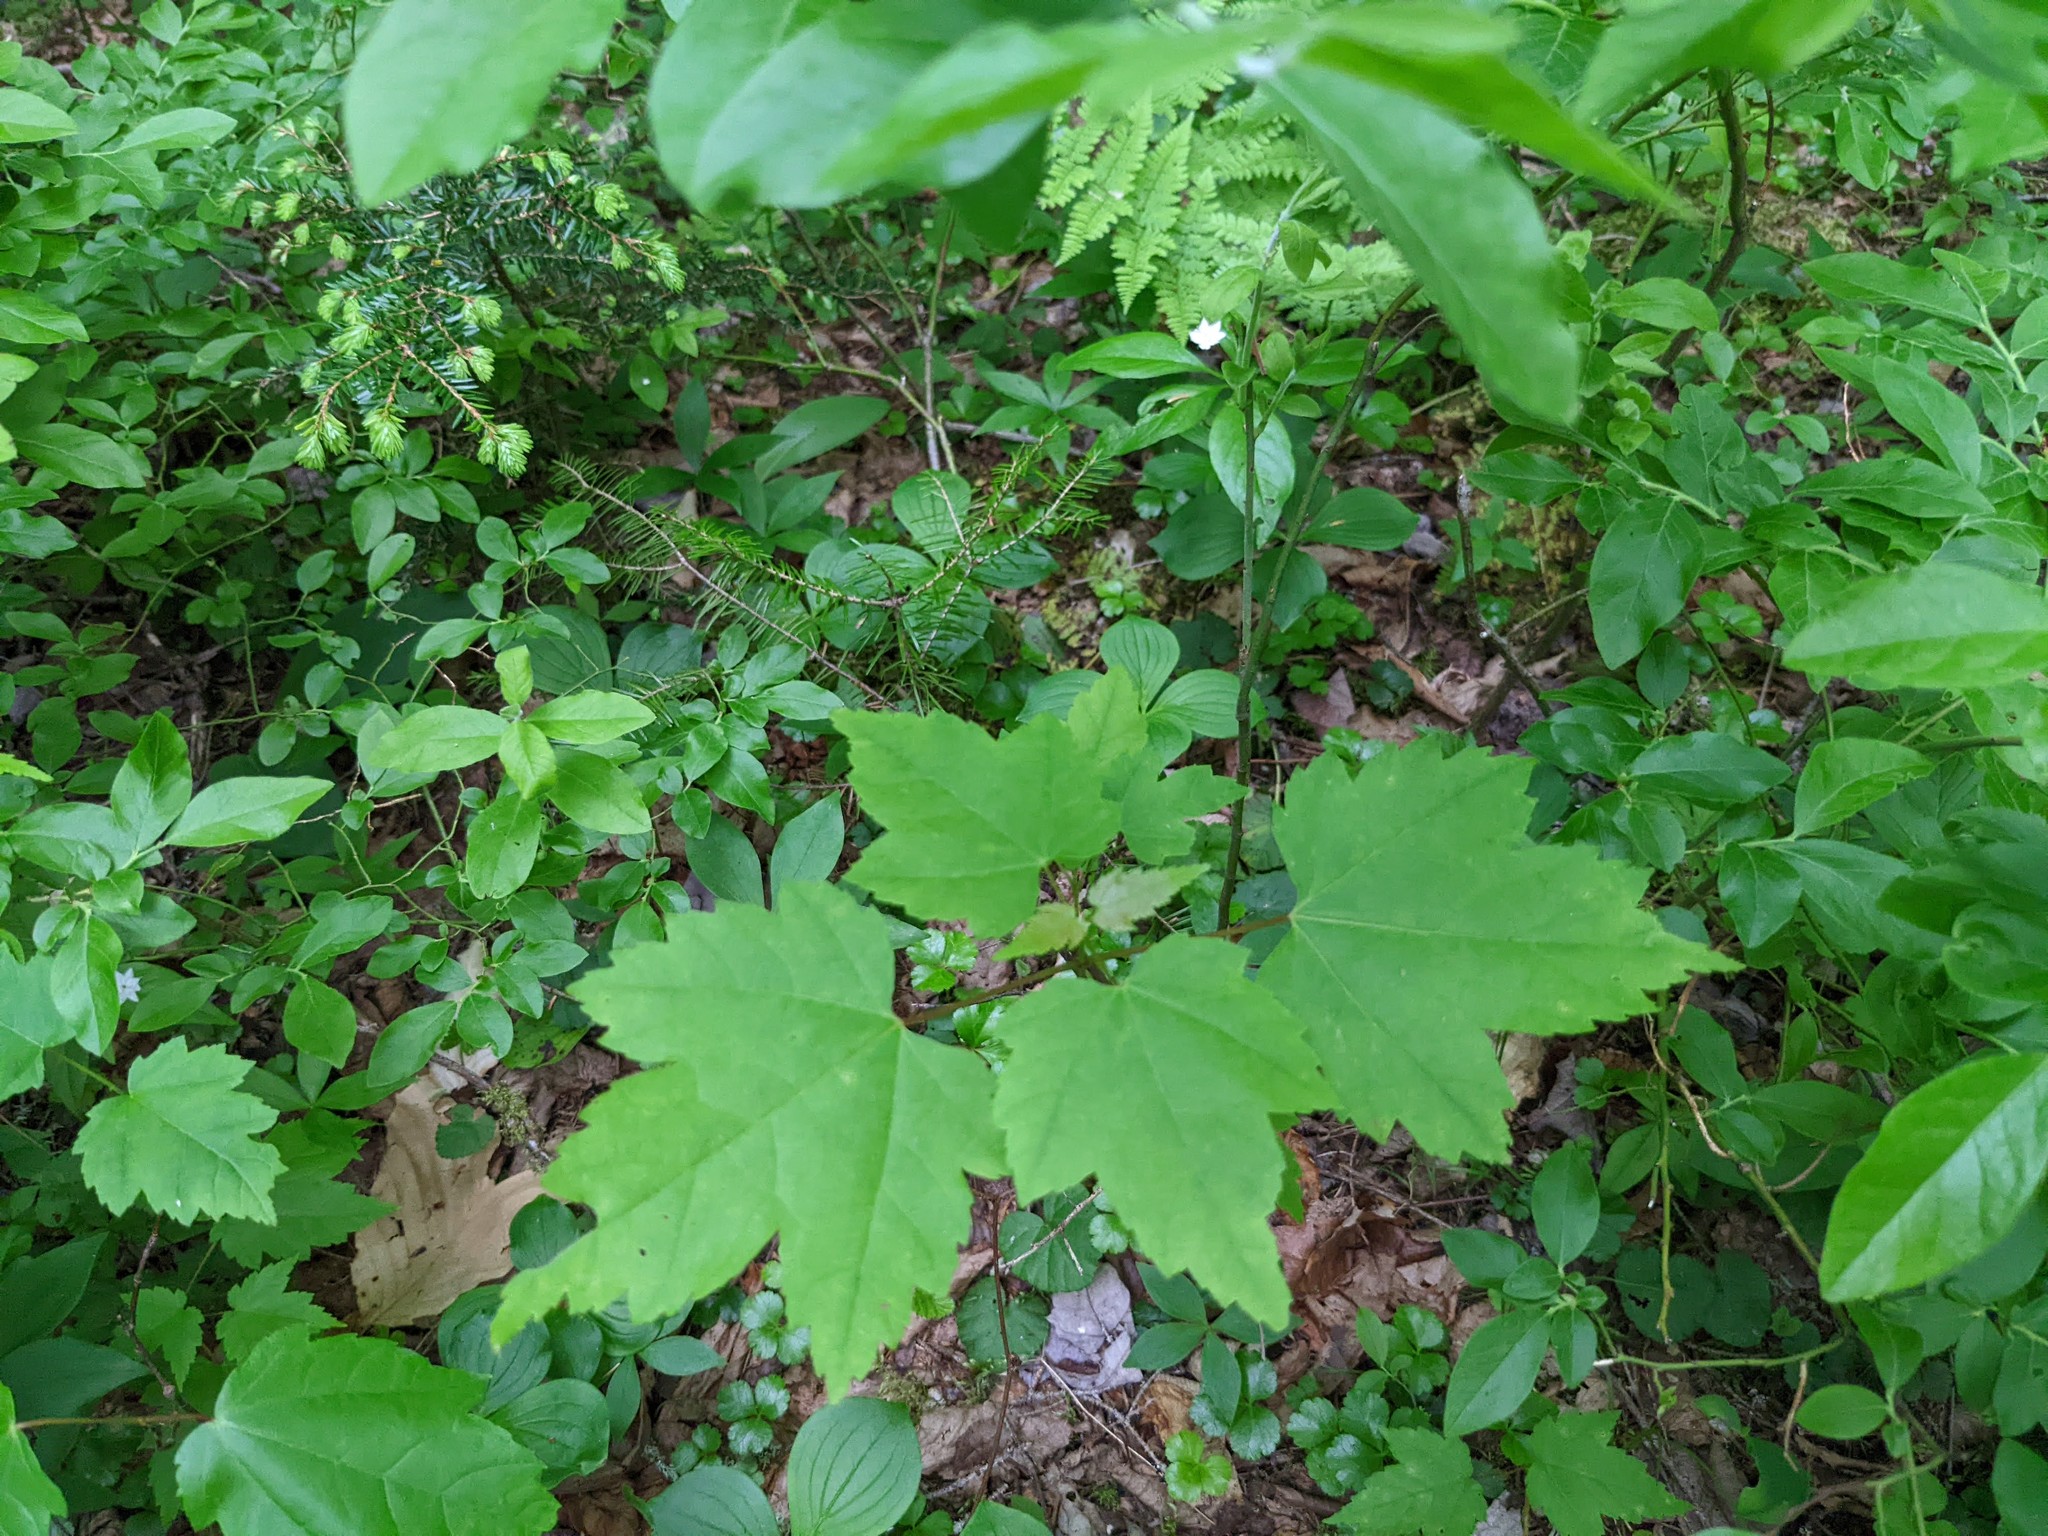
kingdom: Plantae
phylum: Tracheophyta
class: Magnoliopsida
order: Sapindales
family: Sapindaceae
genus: Acer
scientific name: Acer rubrum
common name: Red maple
